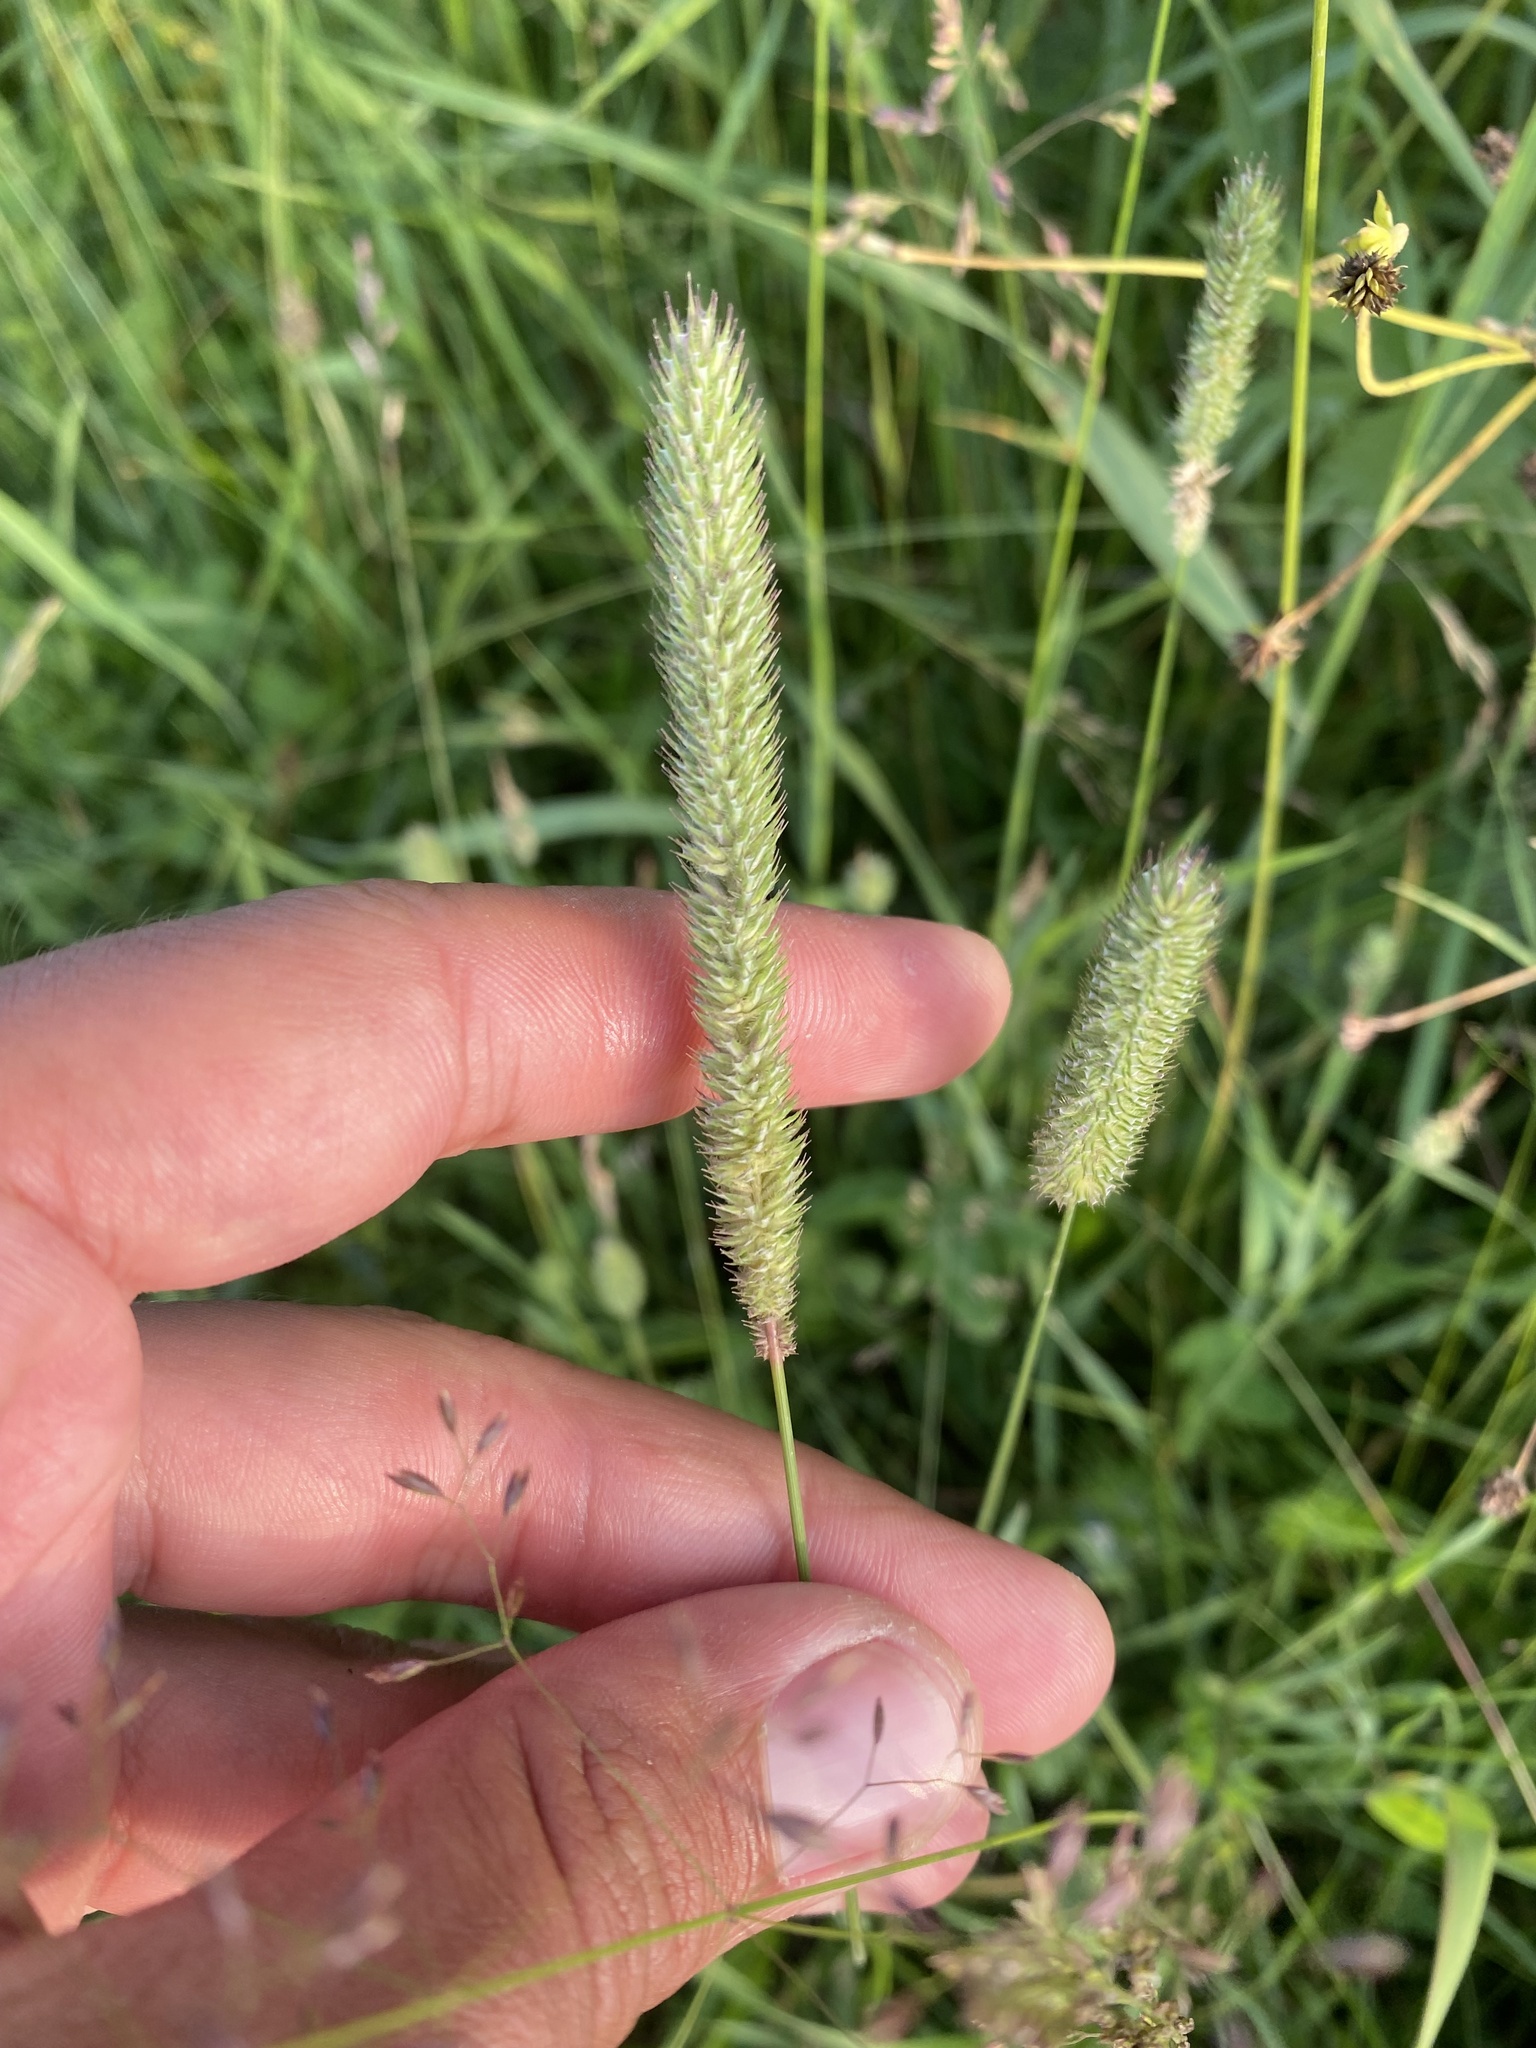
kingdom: Plantae
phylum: Tracheophyta
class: Liliopsida
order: Poales
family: Poaceae
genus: Phleum
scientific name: Phleum pratense
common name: Timothy grass
